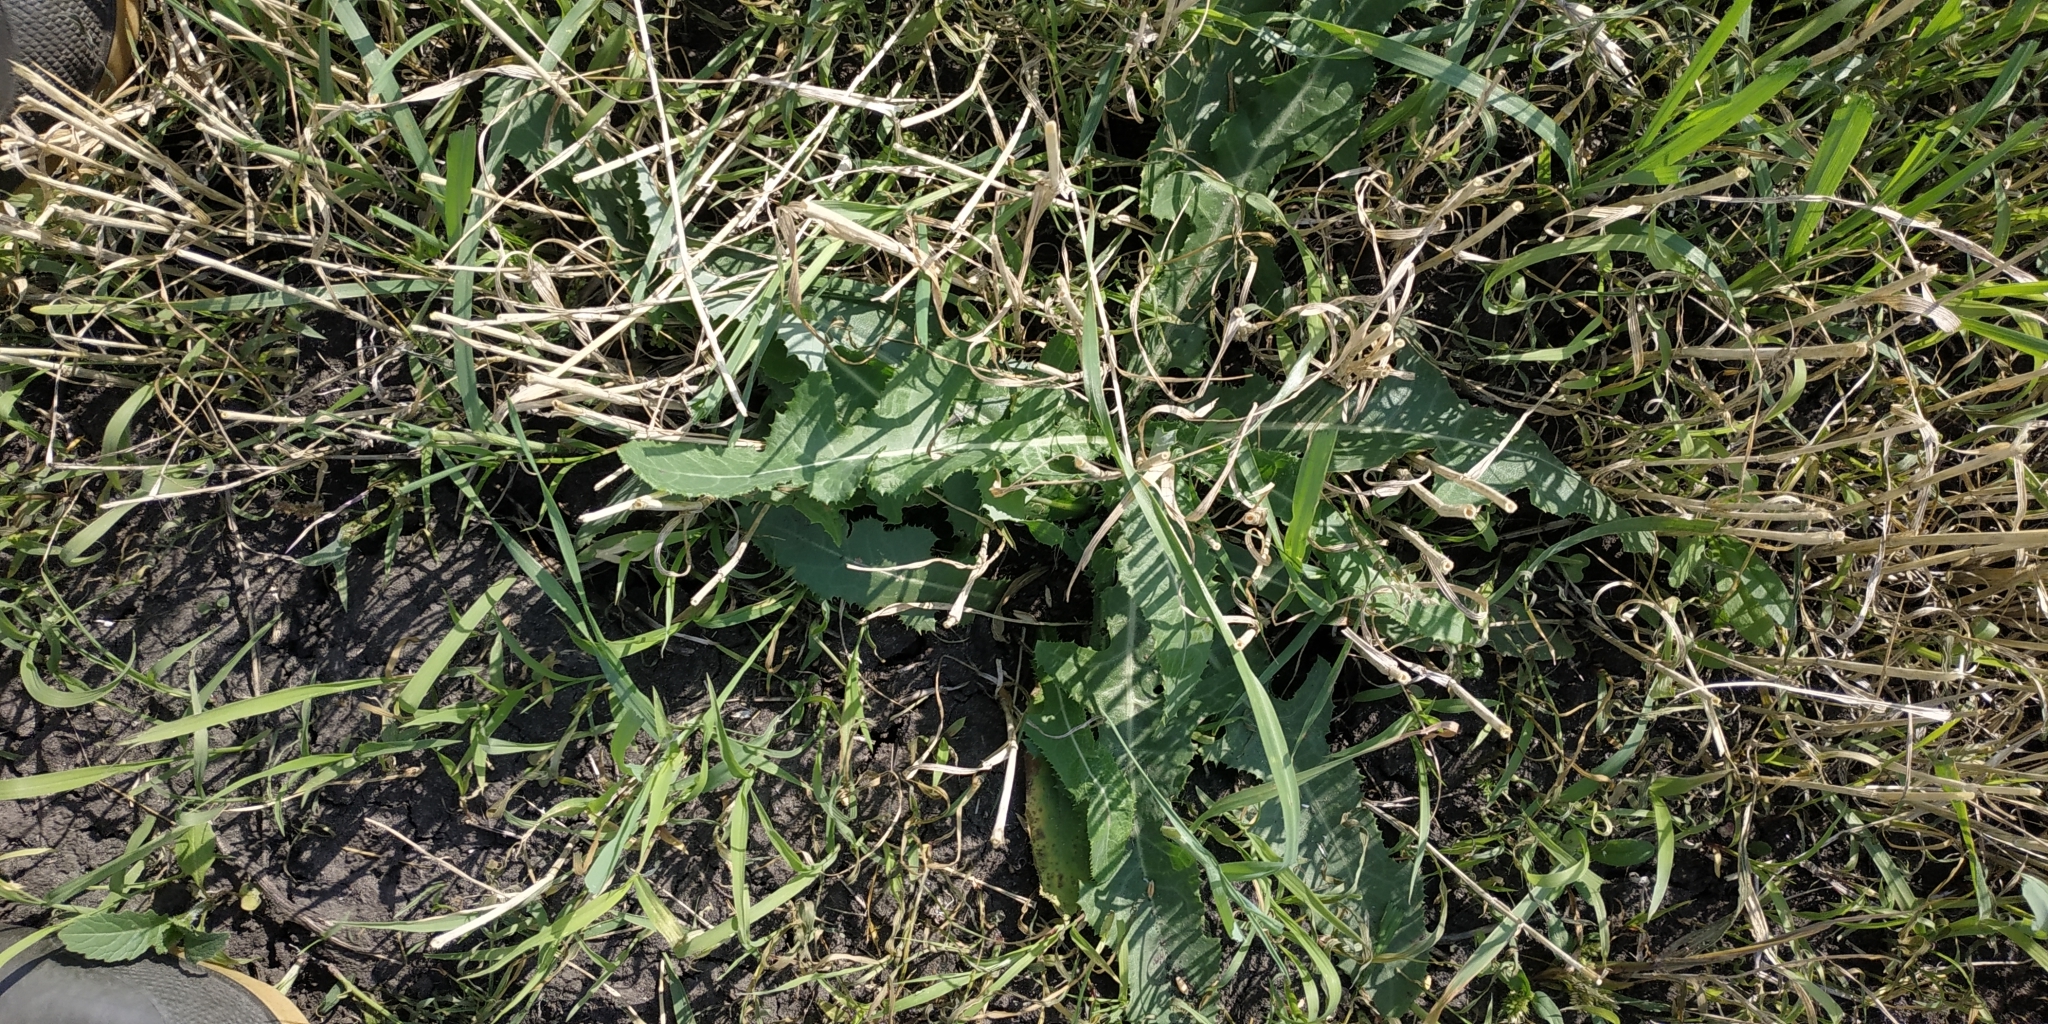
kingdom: Plantae
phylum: Tracheophyta
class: Magnoliopsida
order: Asterales
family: Asteraceae
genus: Sonchus
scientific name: Sonchus arvensis
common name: Perennial sow-thistle
